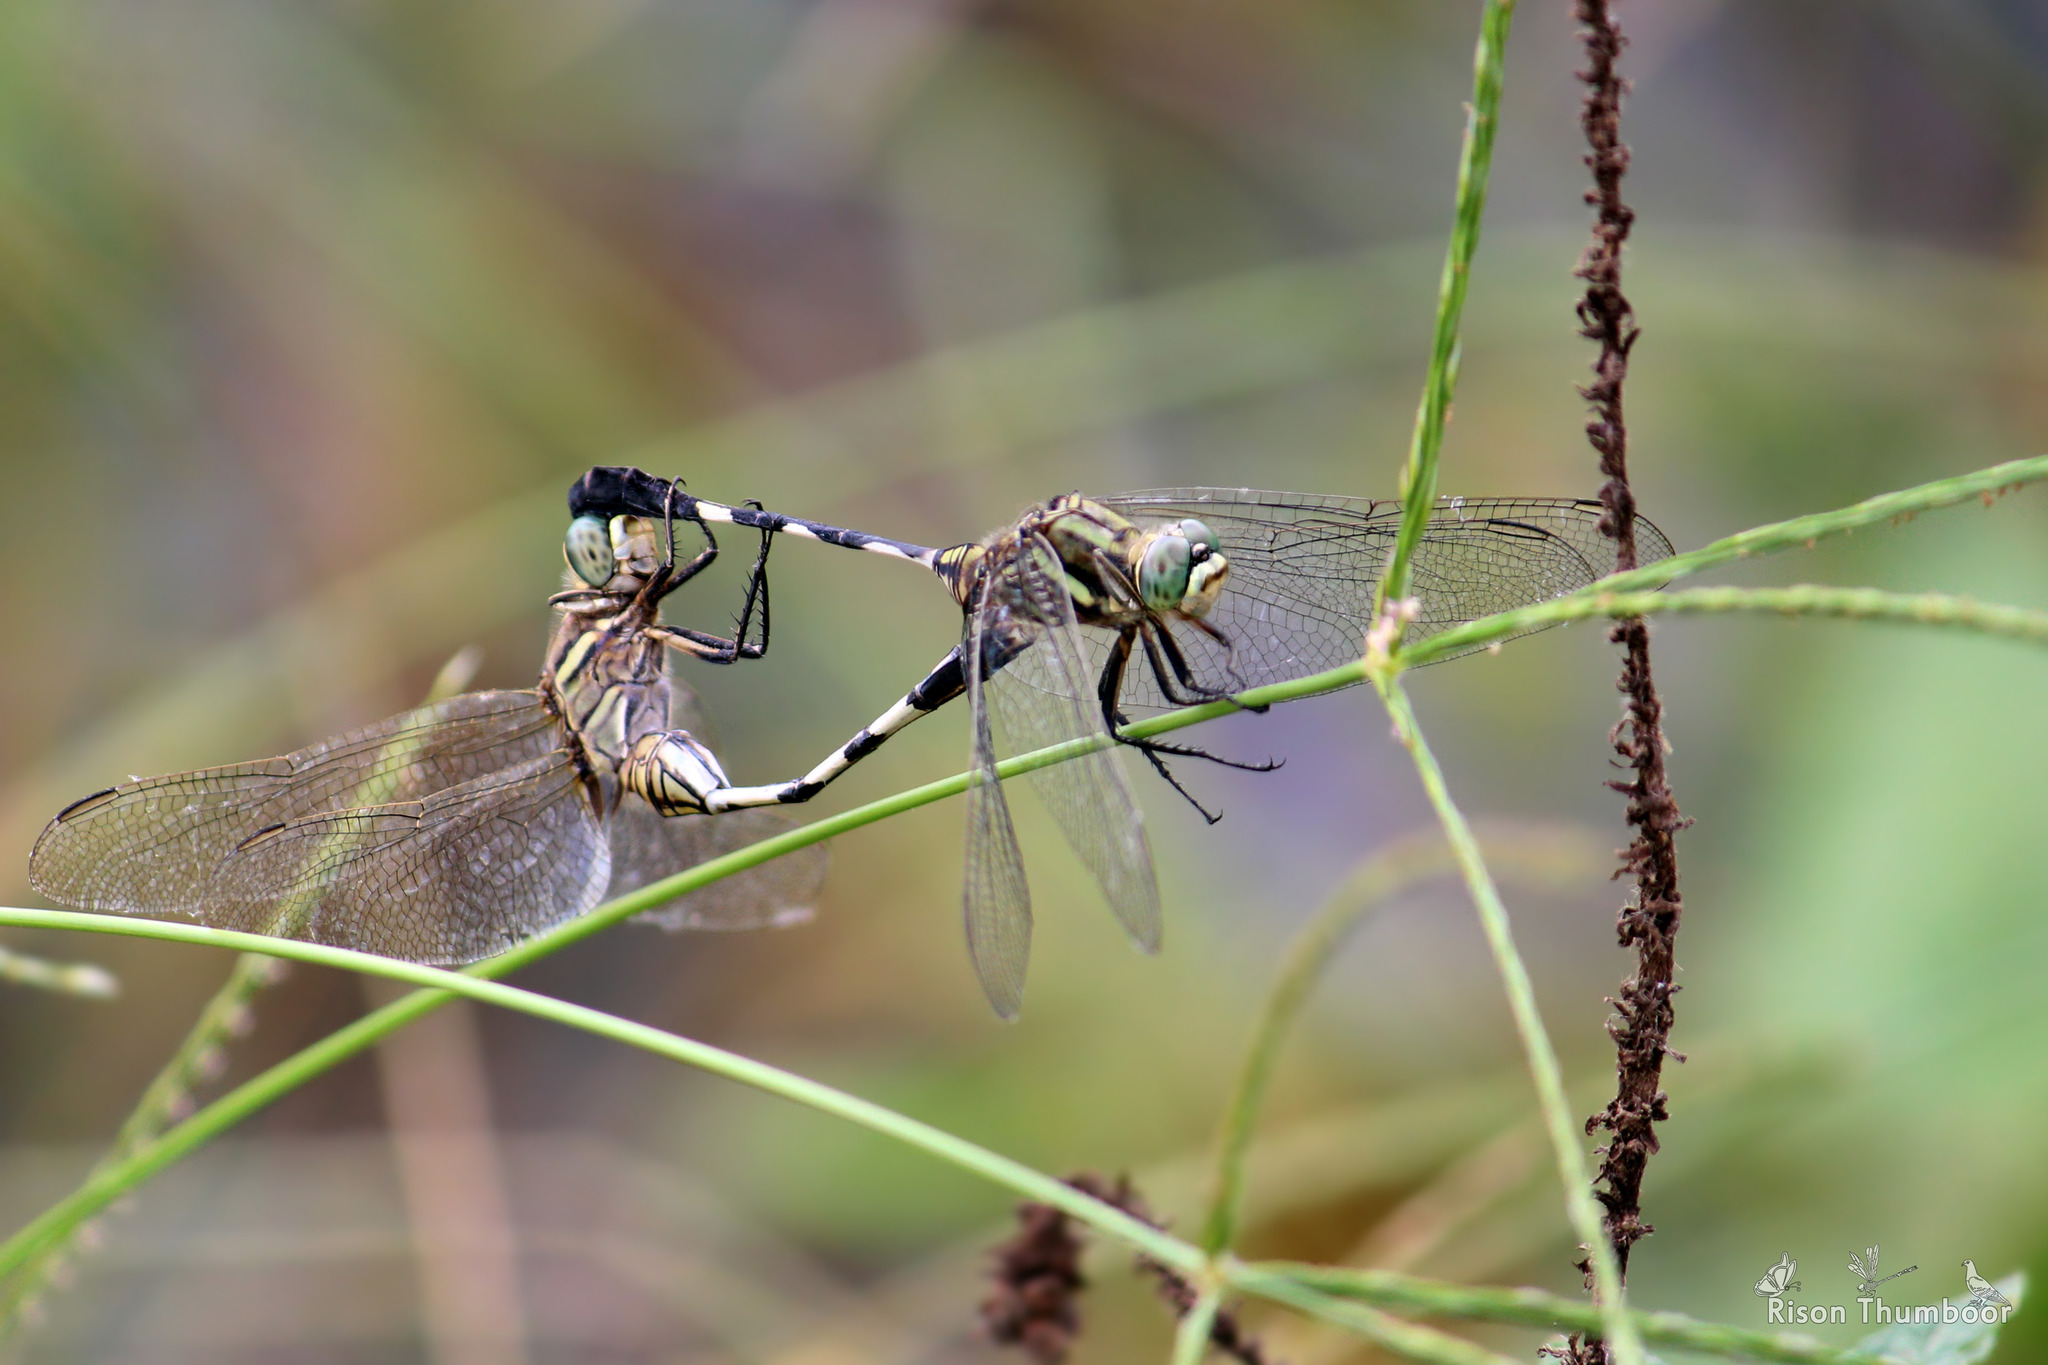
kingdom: Animalia
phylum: Arthropoda
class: Insecta
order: Odonata
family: Libellulidae
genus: Orthetrum
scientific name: Orthetrum sabina
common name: Slender skimmer
